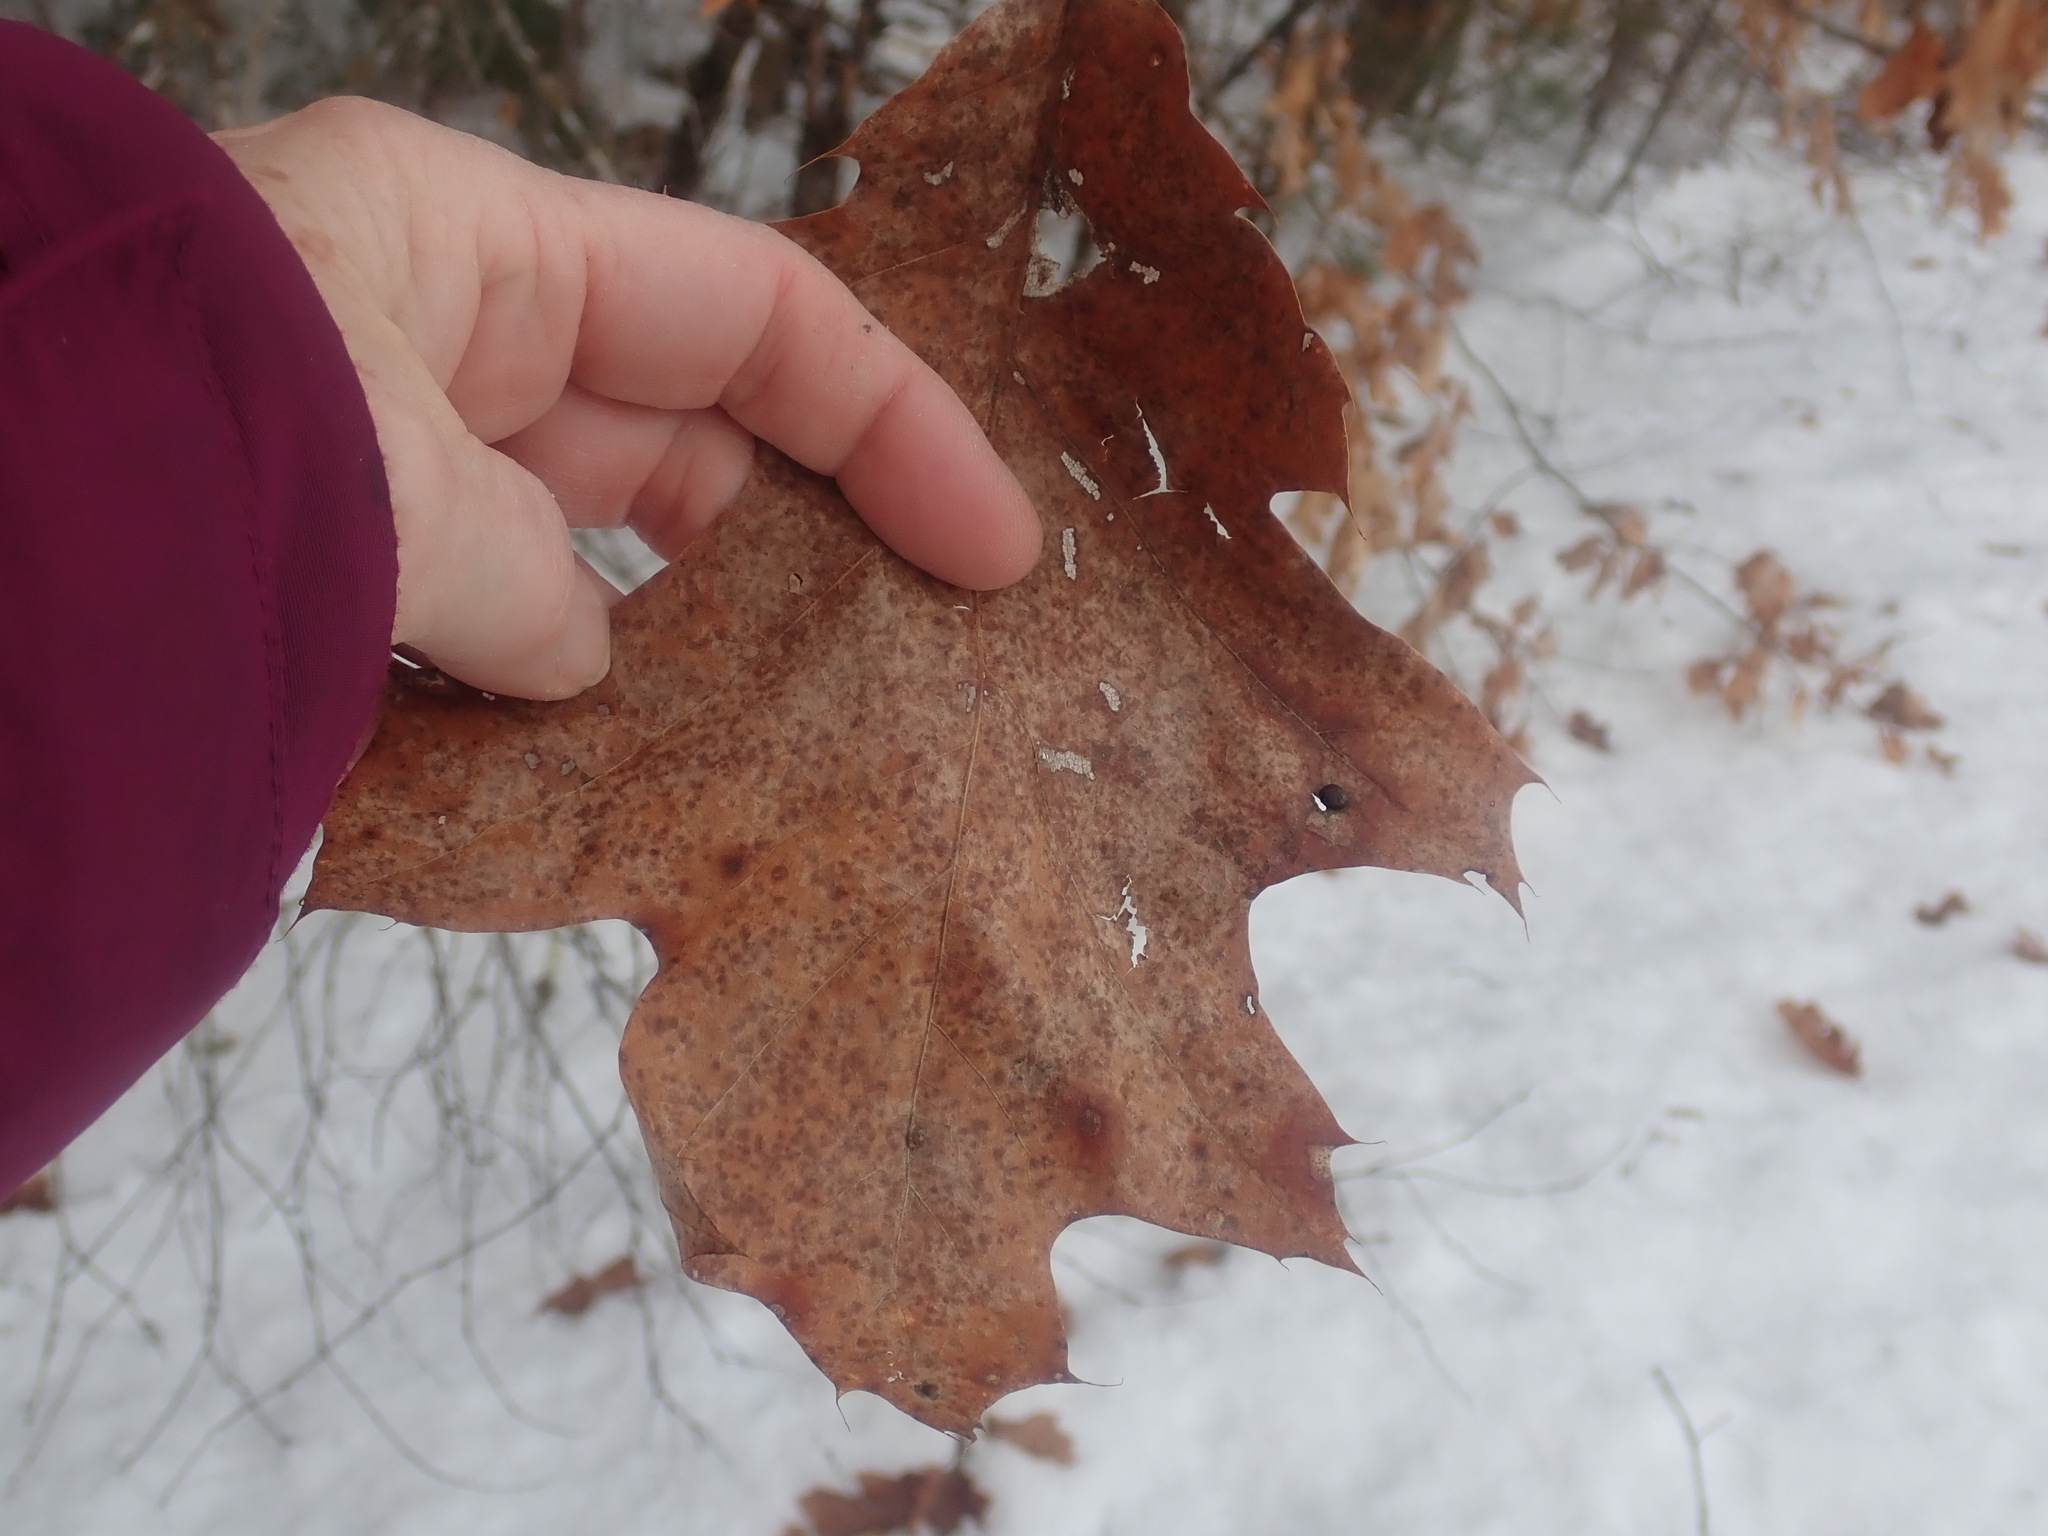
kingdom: Plantae
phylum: Tracheophyta
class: Magnoliopsida
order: Fagales
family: Fagaceae
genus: Quercus
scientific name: Quercus velutina
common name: Black oak
